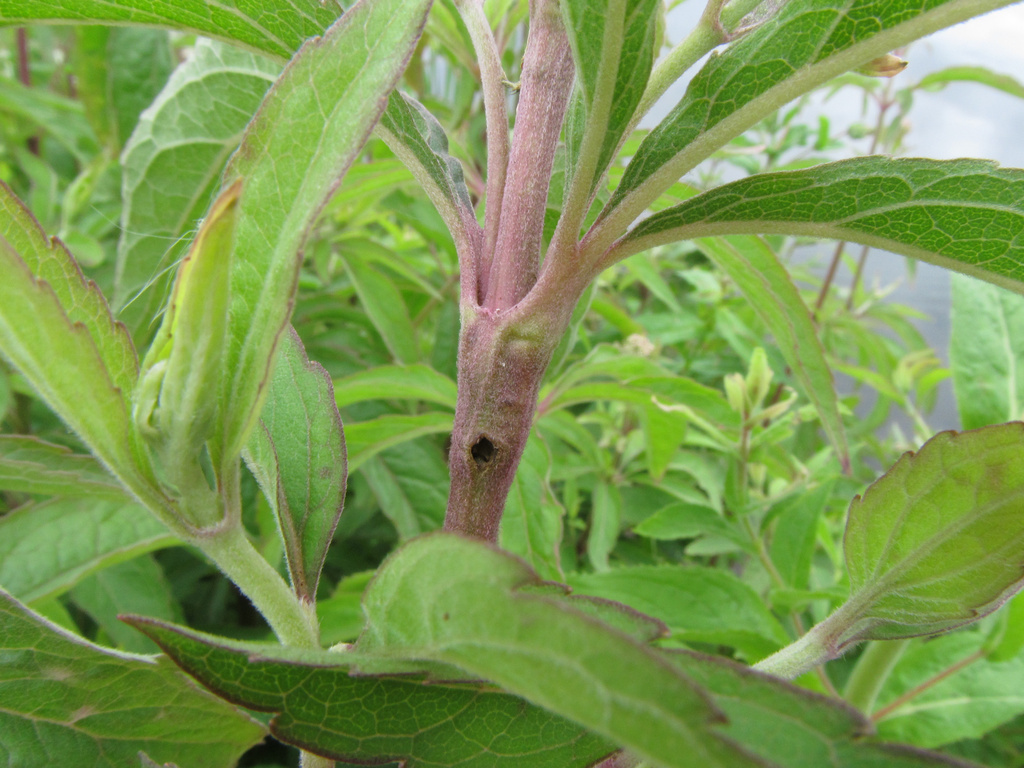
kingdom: Animalia
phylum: Arthropoda
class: Insecta
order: Lepidoptera
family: Pterophoridae
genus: Adaina
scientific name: Adaina microdactyla
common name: Hemp-agrimony plume
